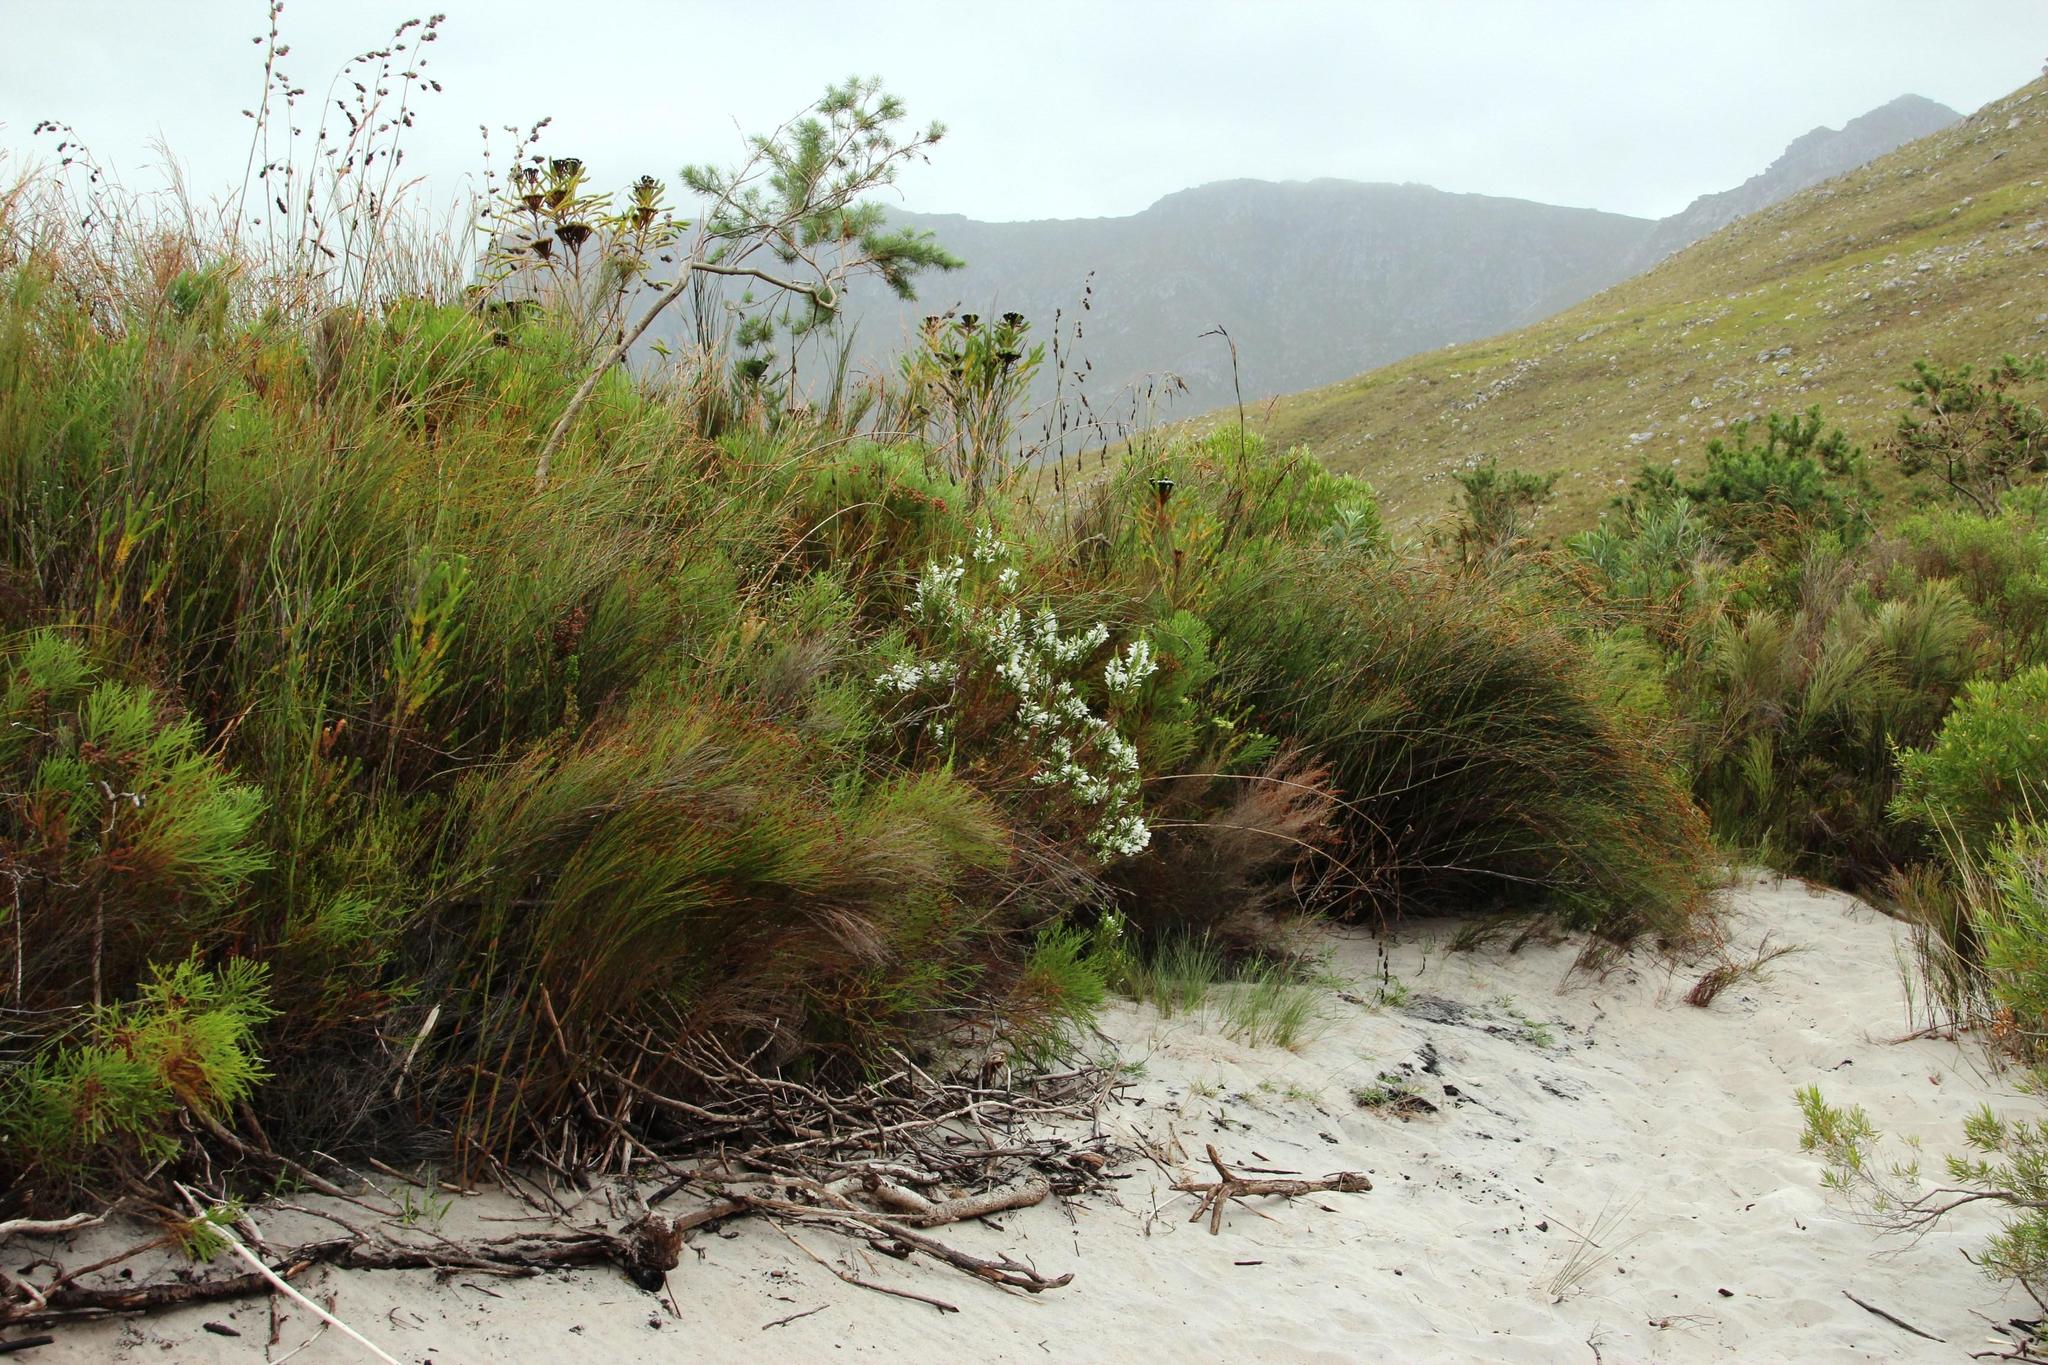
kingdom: Plantae
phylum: Tracheophyta
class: Magnoliopsida
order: Ericales
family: Ericaceae
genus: Erica
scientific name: Erica perspicua
